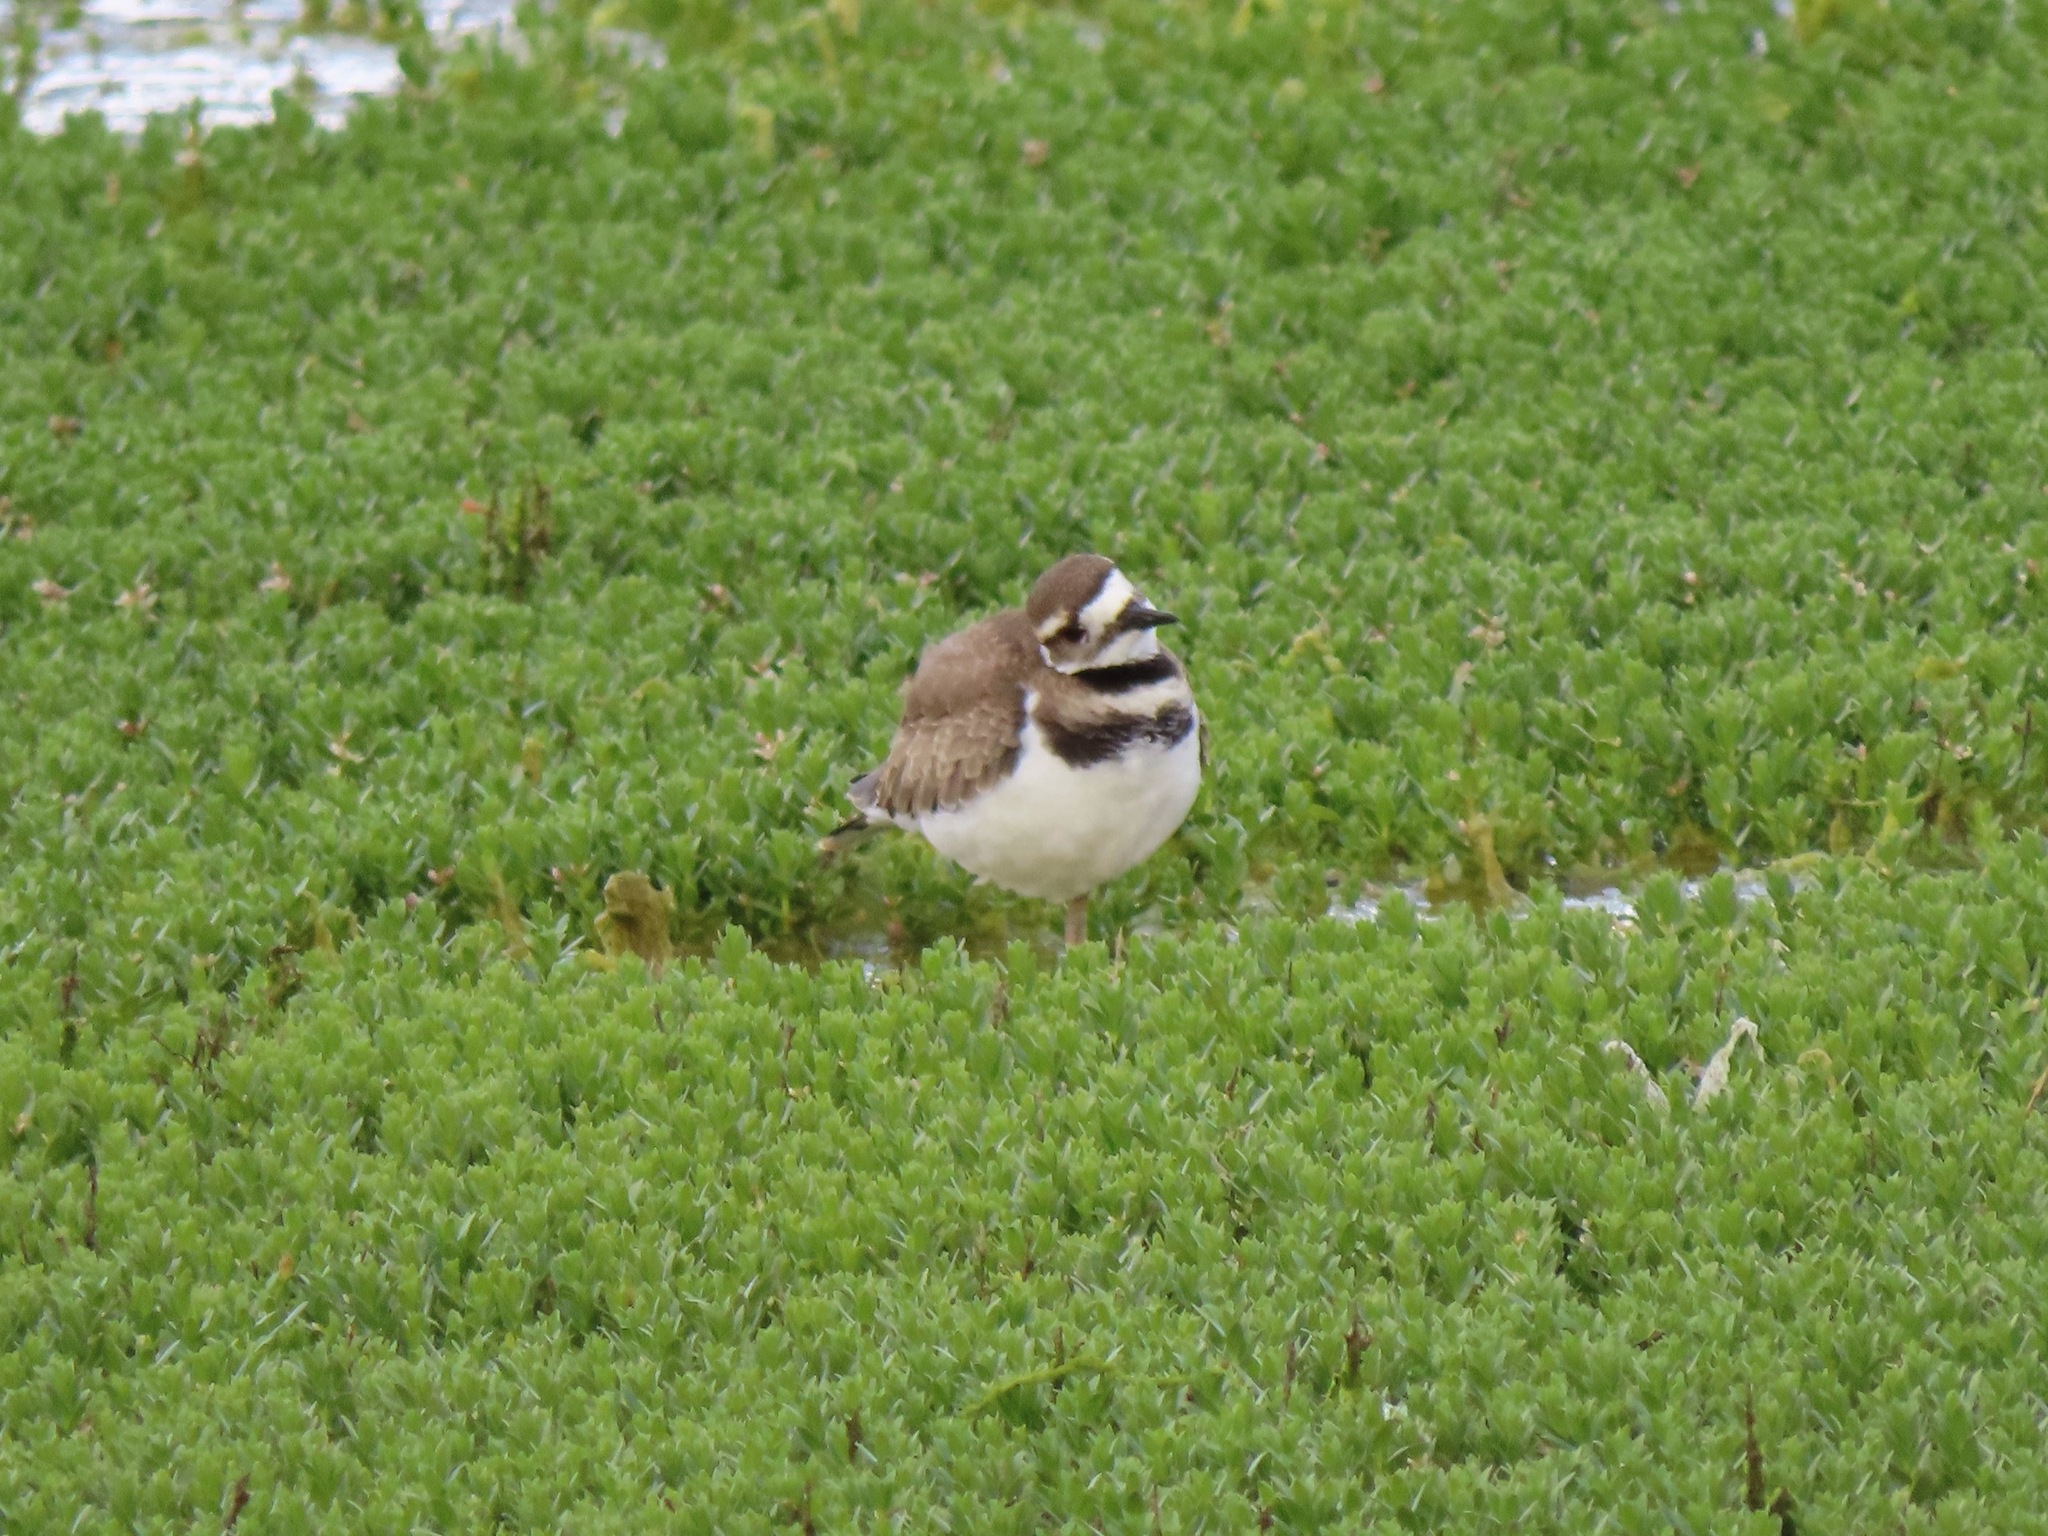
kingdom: Animalia
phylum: Chordata
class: Aves
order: Charadriiformes
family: Charadriidae
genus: Charadrius
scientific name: Charadrius vociferus
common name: Killdeer
